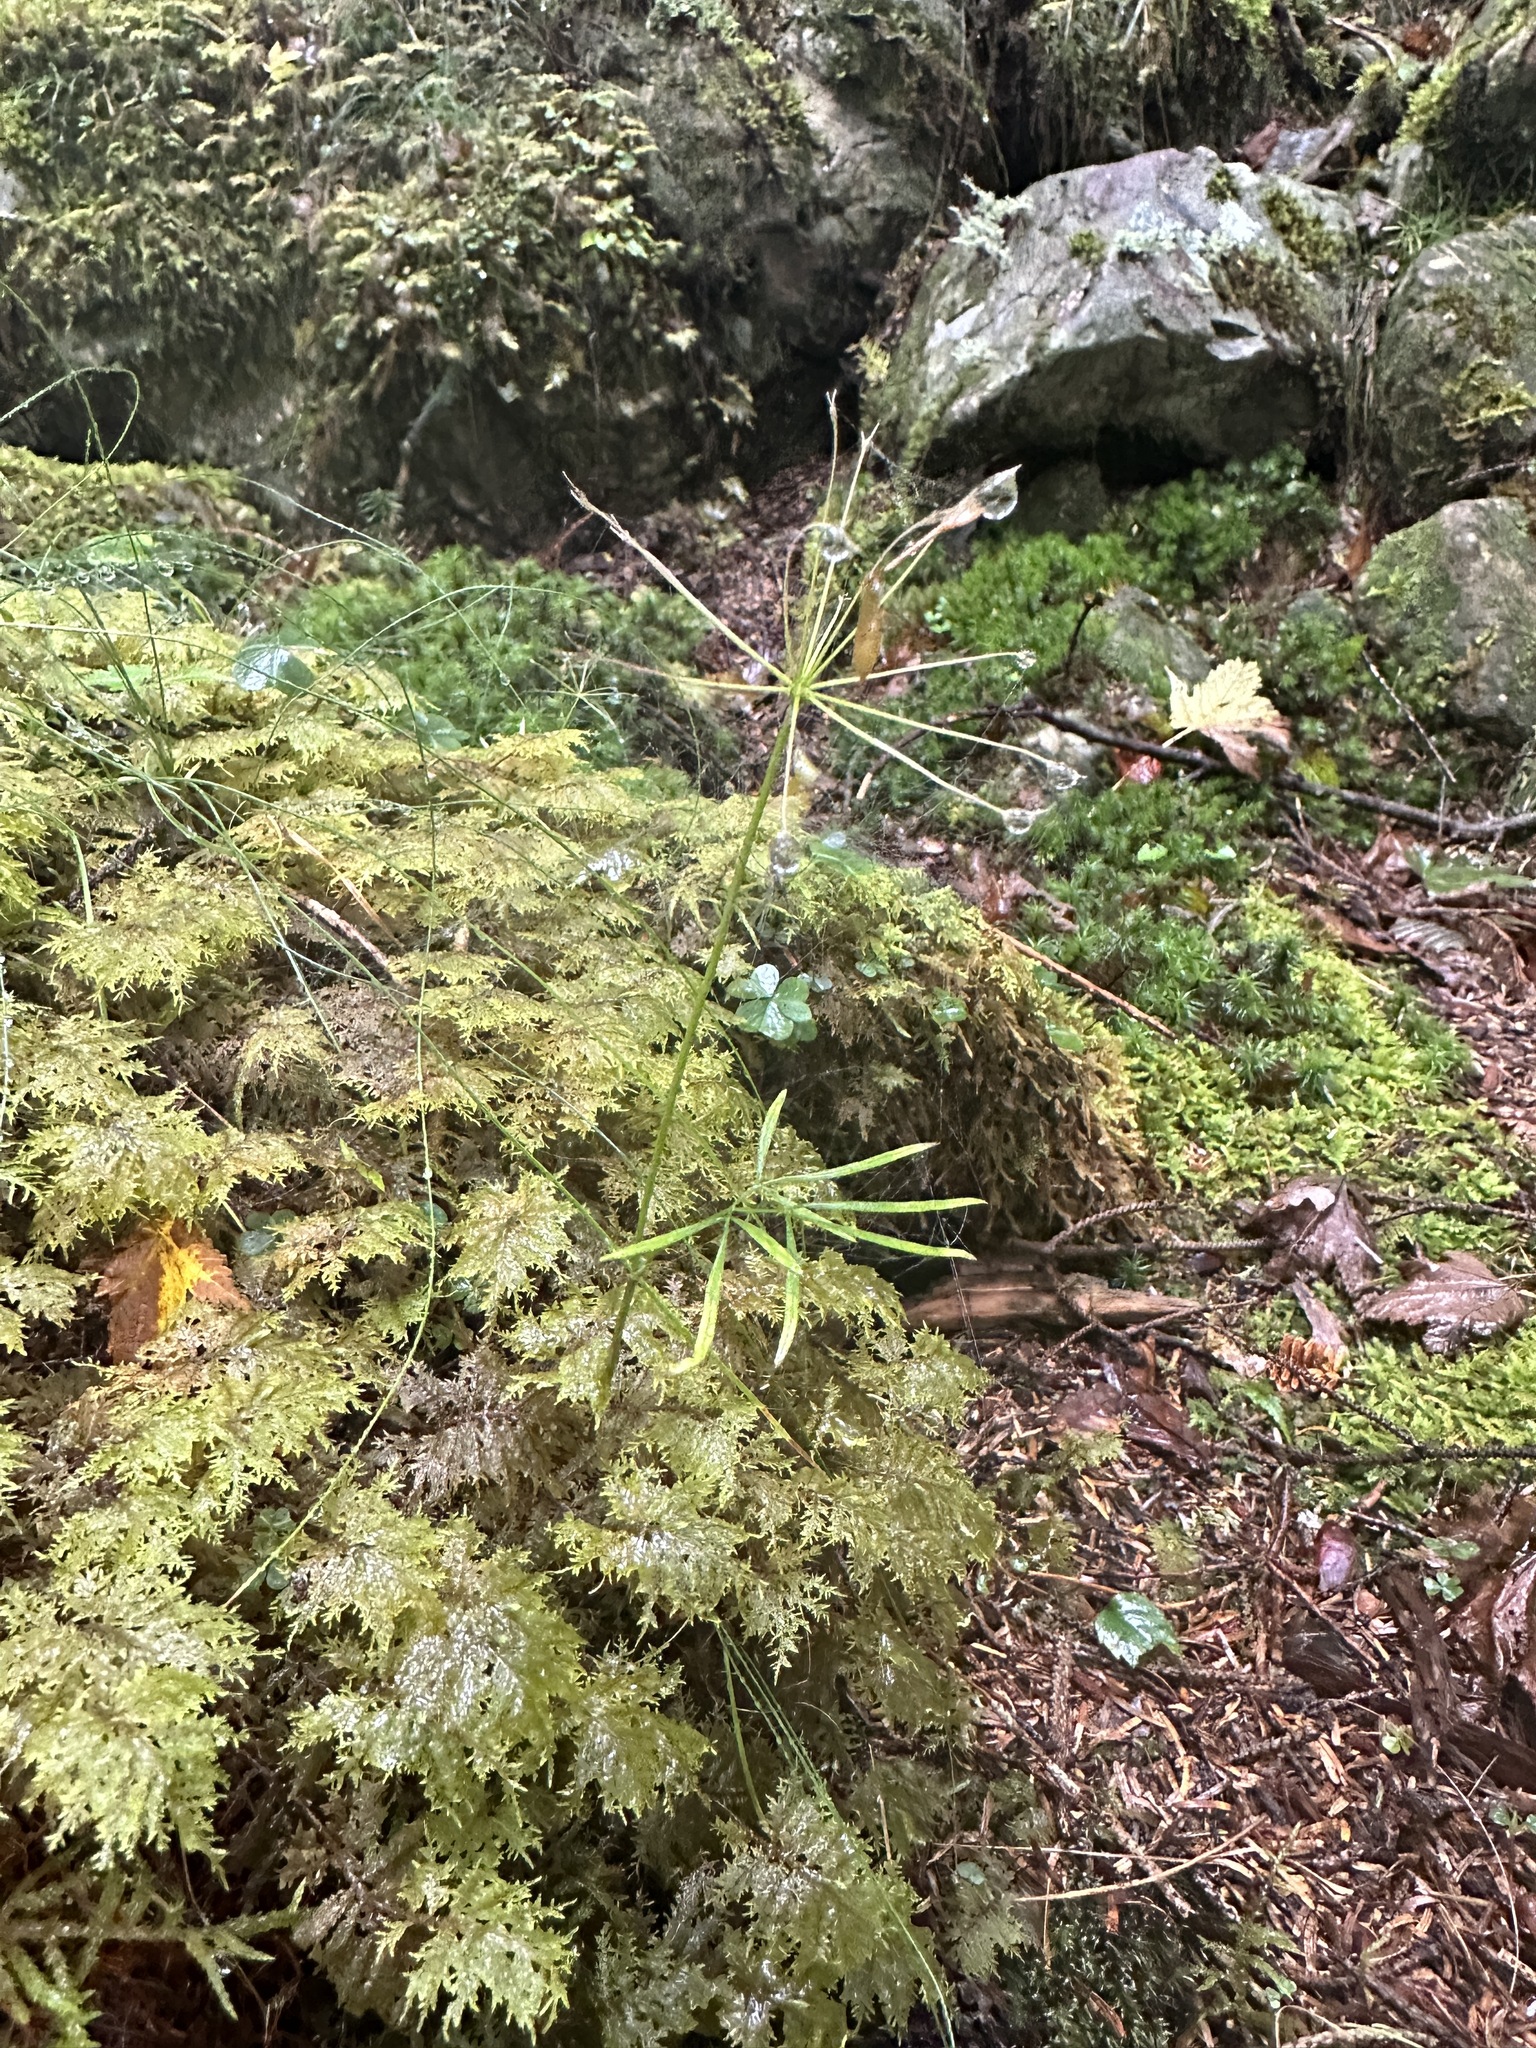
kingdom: Plantae
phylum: Tracheophyta
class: Magnoliopsida
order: Apiales
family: Apiaceae
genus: Pternopetalum
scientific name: Pternopetalum tanakae
